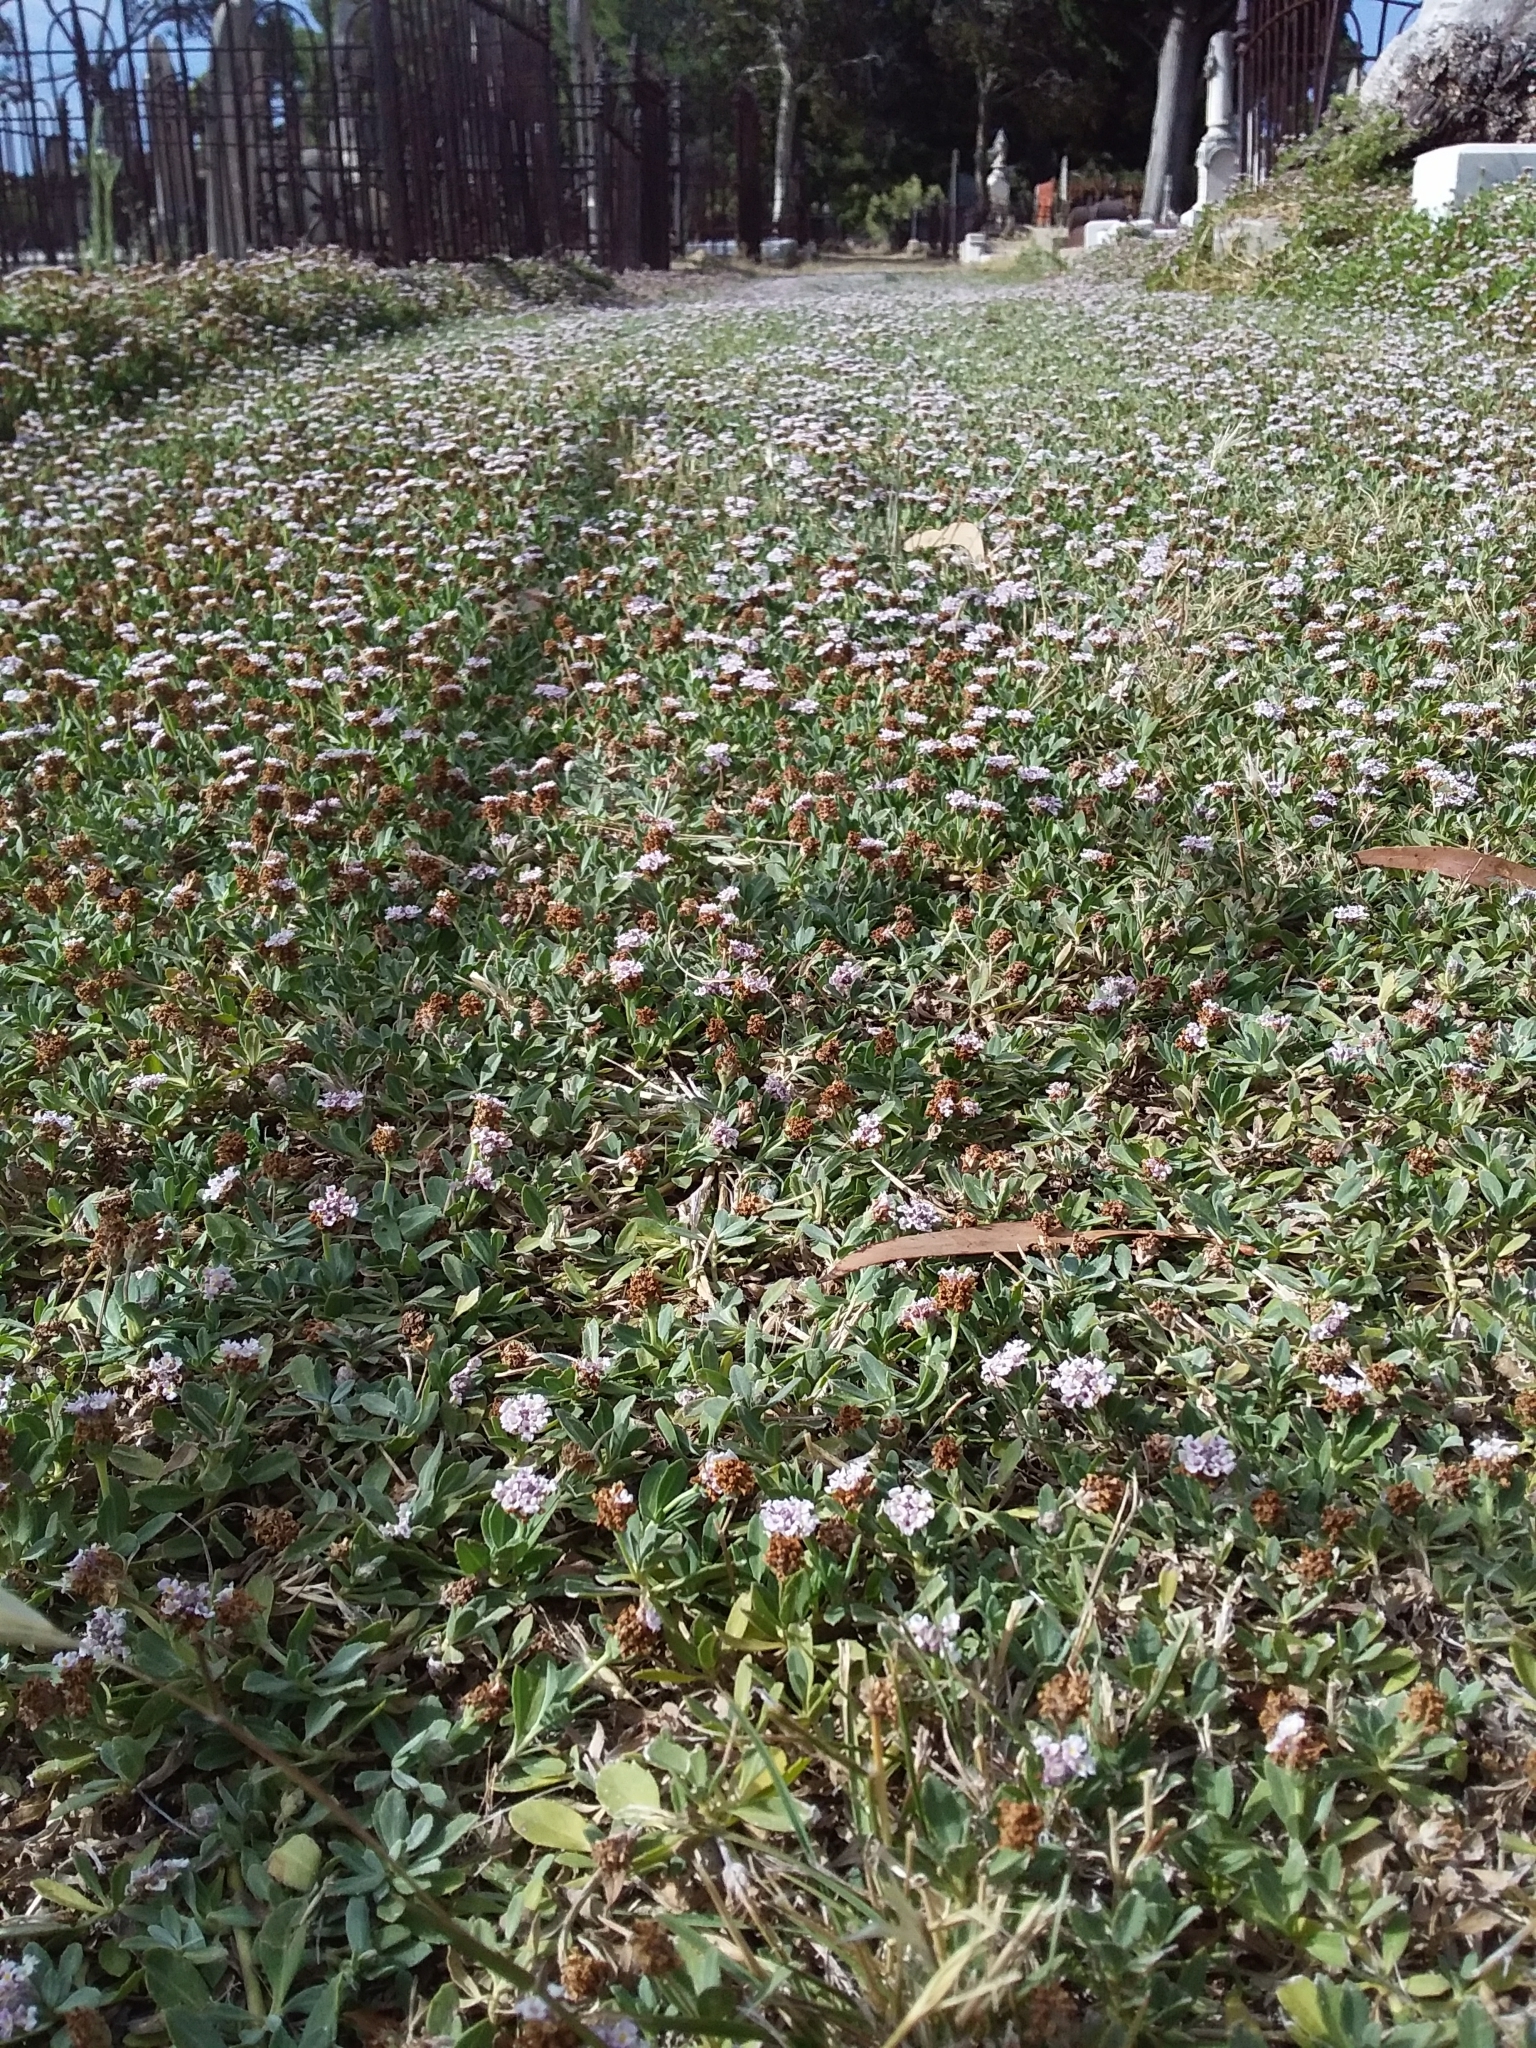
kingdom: Plantae
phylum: Tracheophyta
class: Magnoliopsida
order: Lamiales
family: Verbenaceae
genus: Phyla
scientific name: Phyla nodiflora
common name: Frogfruit
